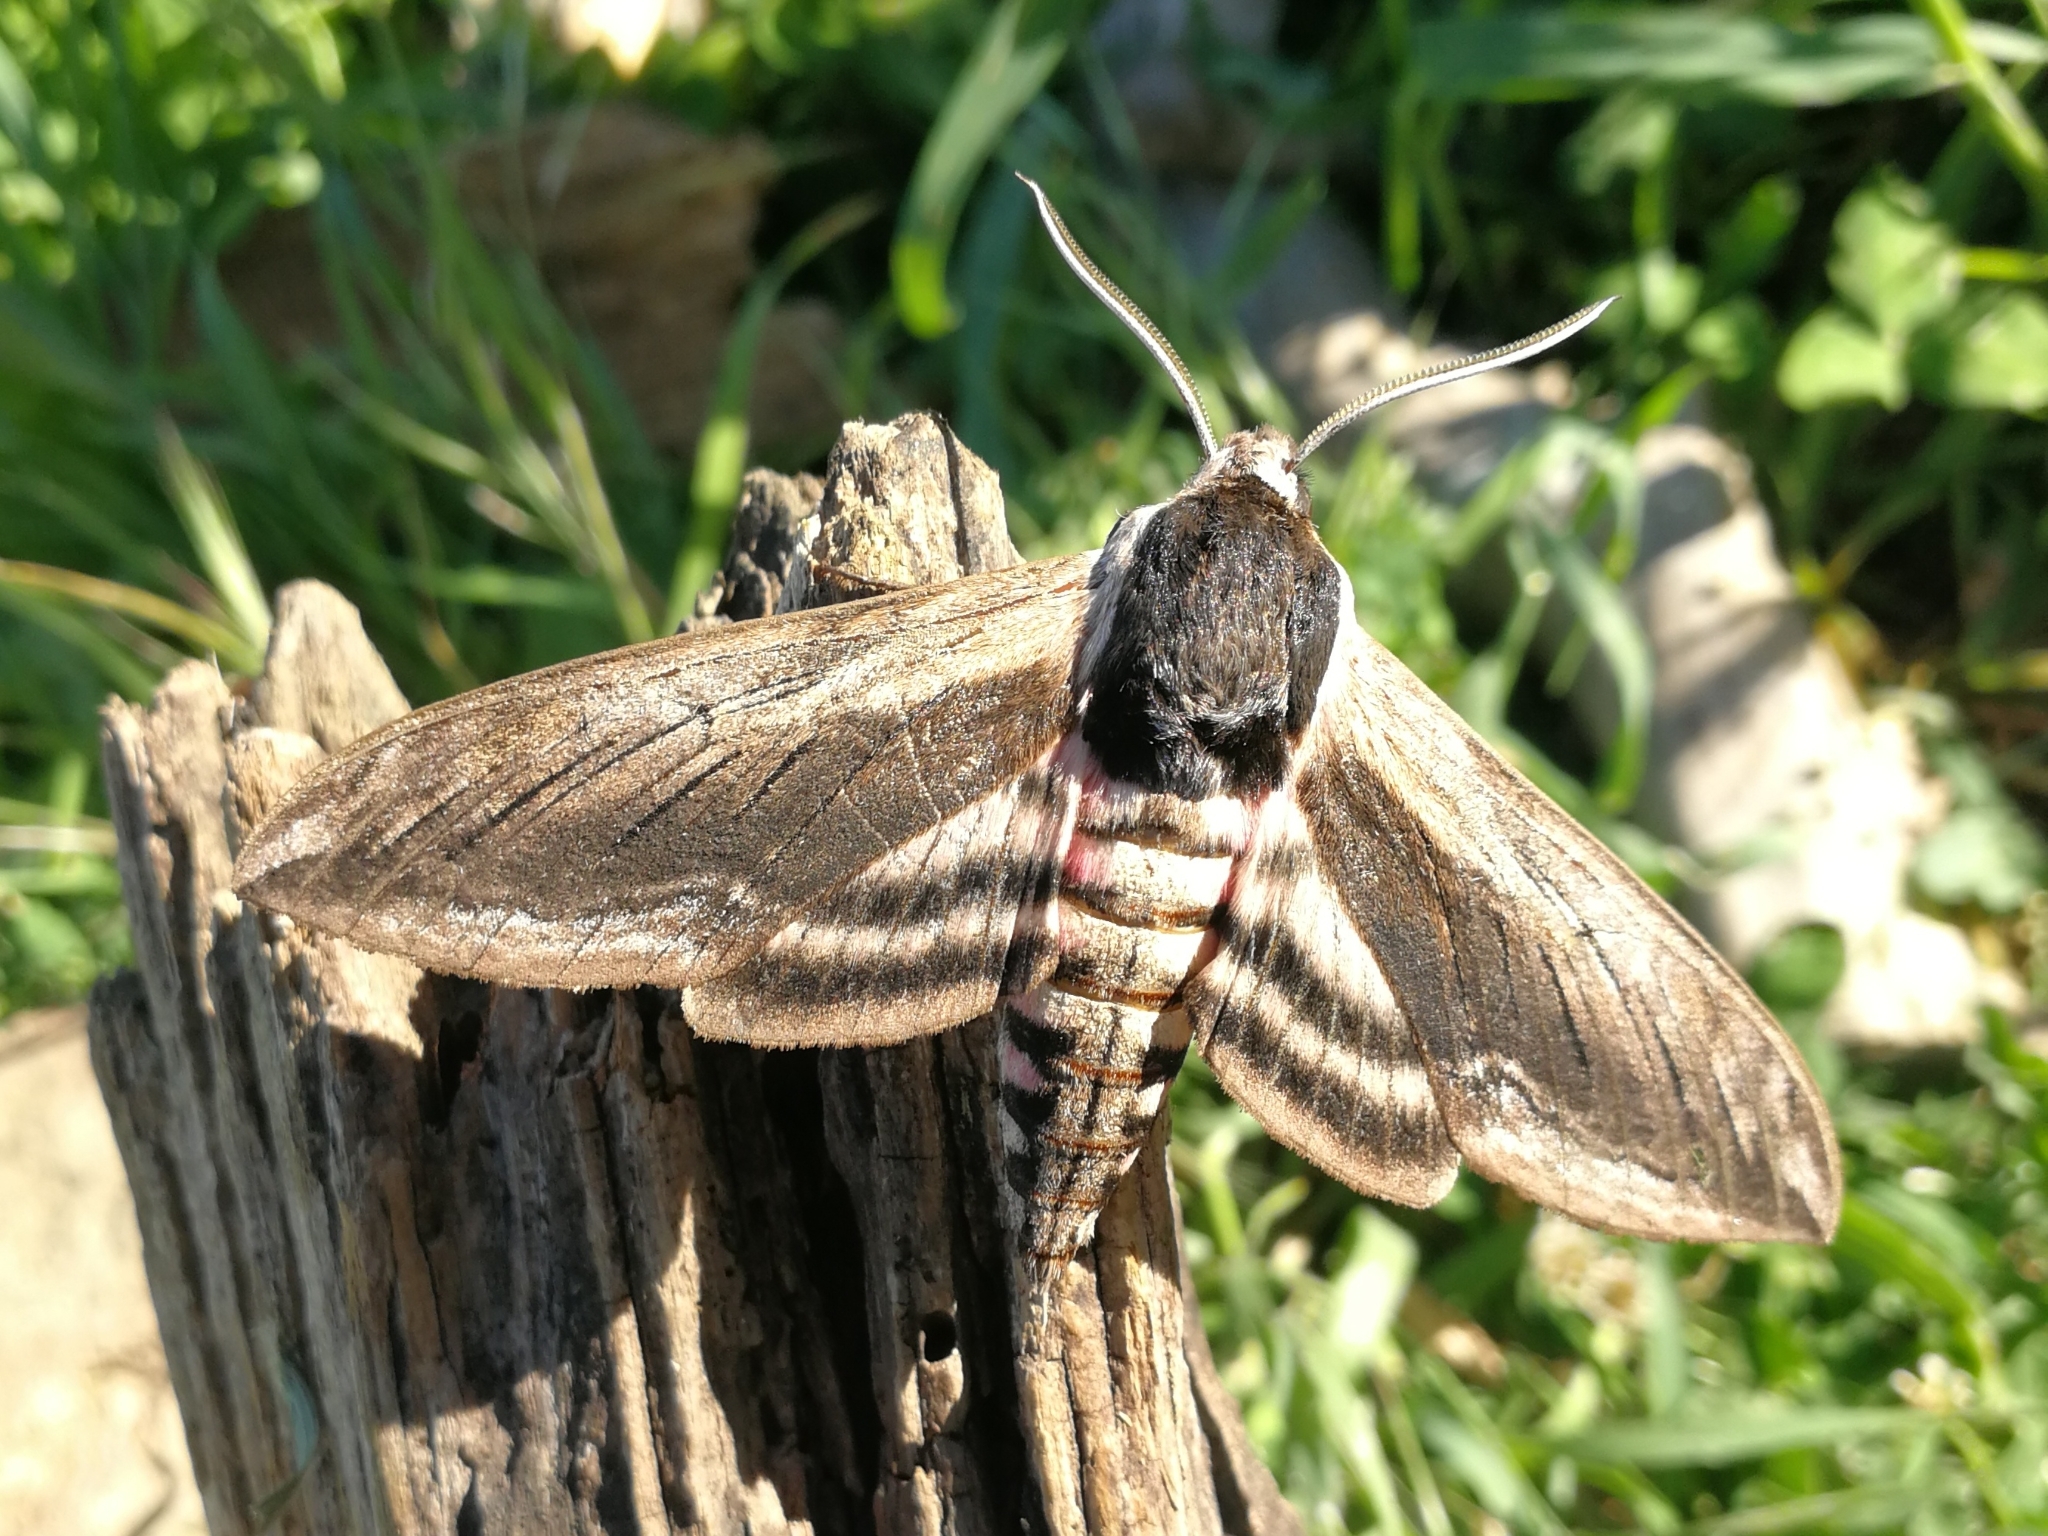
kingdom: Animalia
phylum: Arthropoda
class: Insecta
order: Lepidoptera
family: Sphingidae
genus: Sphinx
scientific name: Sphinx ligustri
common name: Privet hawk-moth
